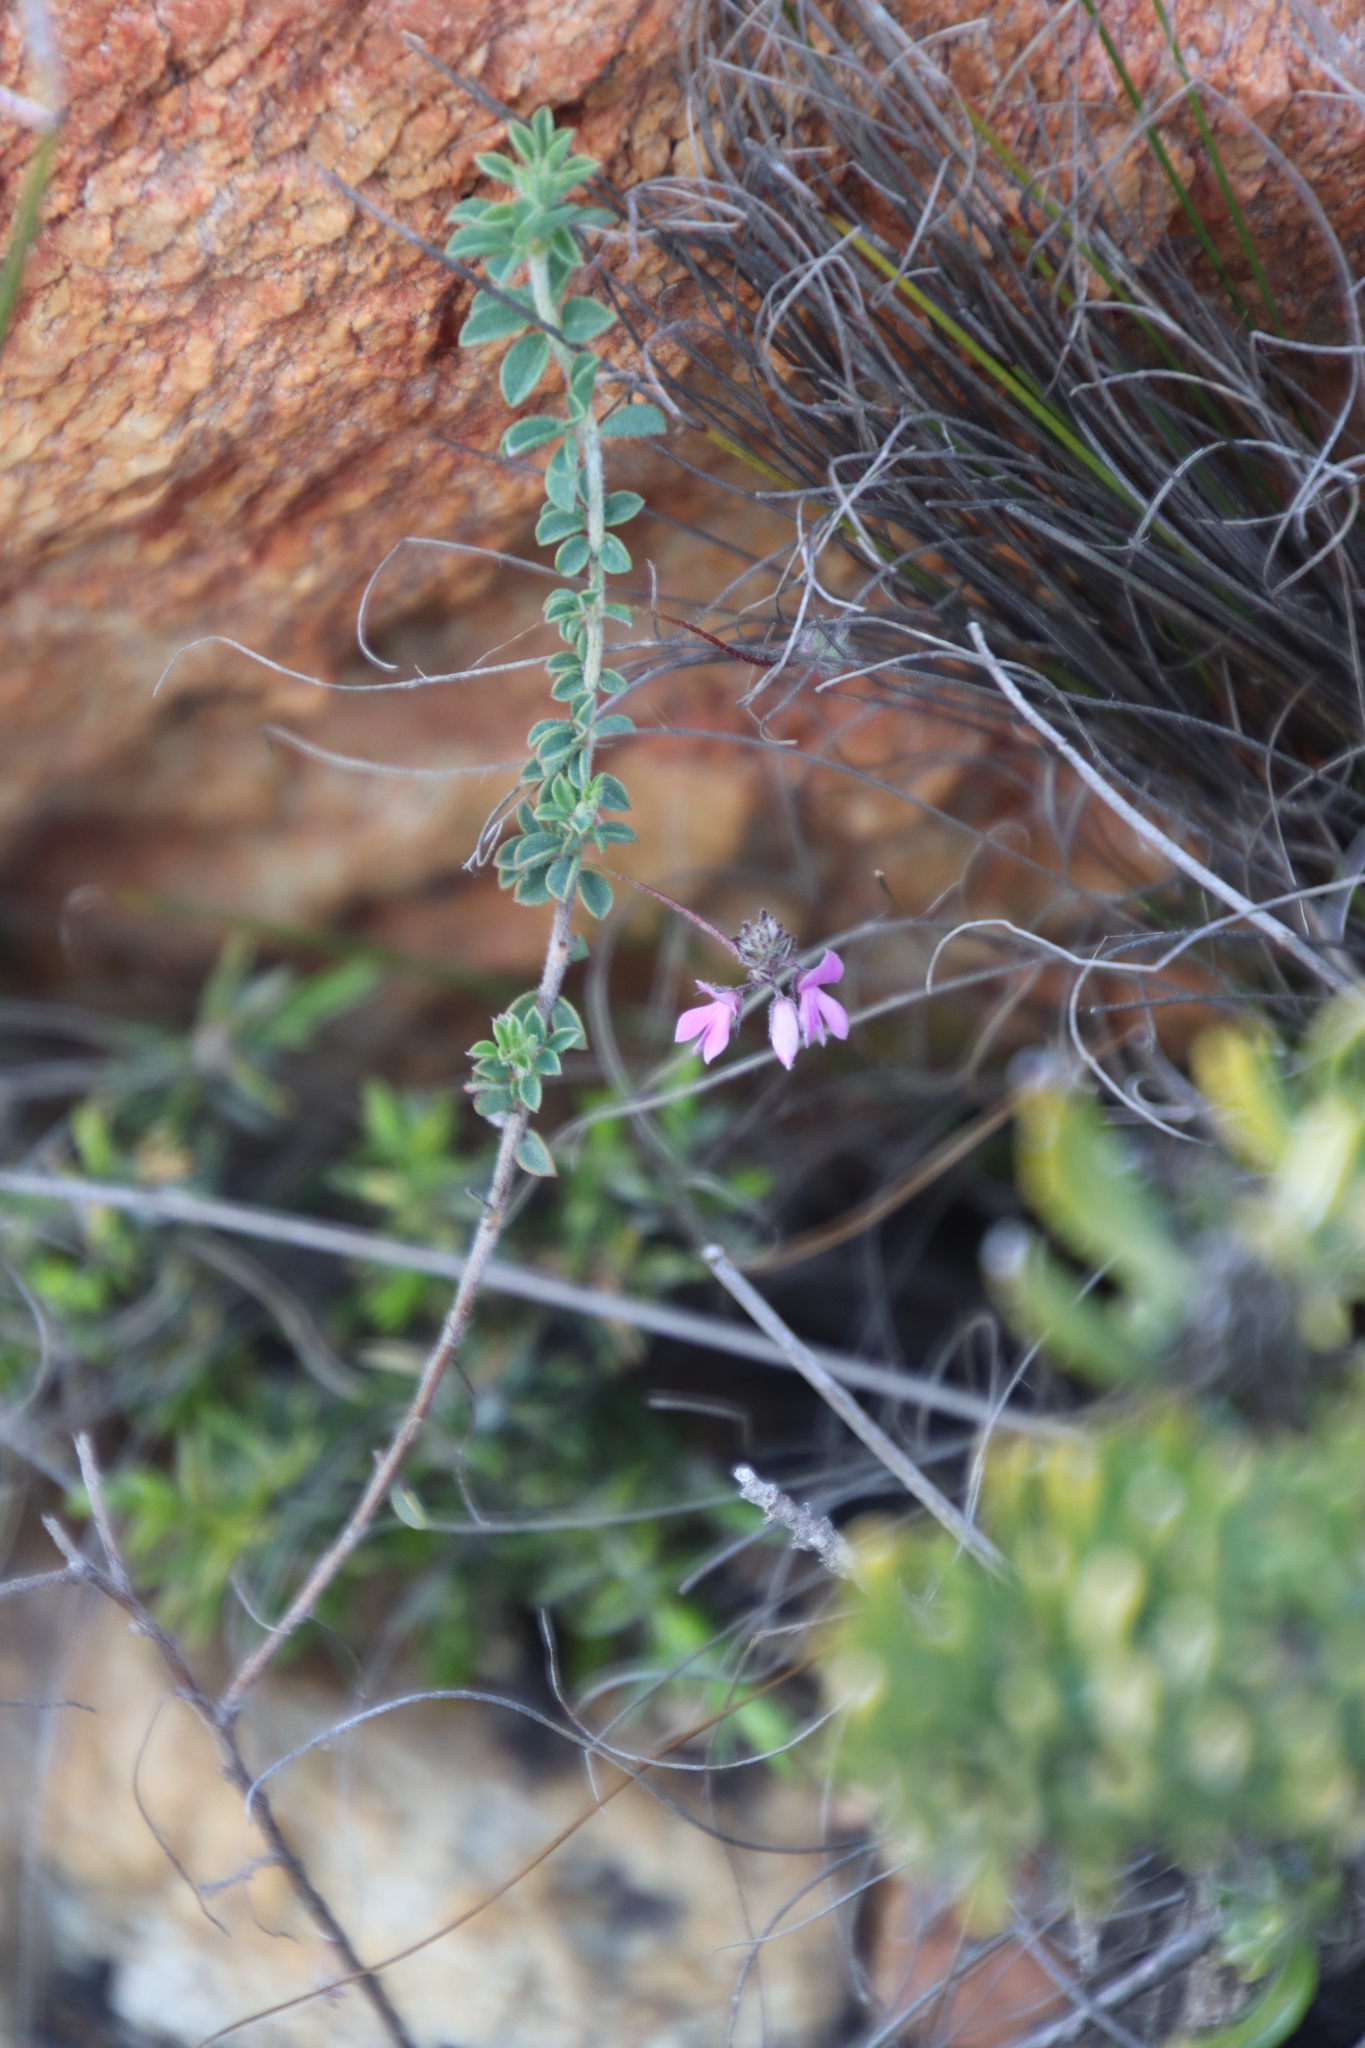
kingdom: Plantae
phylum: Tracheophyta
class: Magnoliopsida
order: Fabales
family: Fabaceae
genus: Indigofera
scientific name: Indigofera alopecuroides
